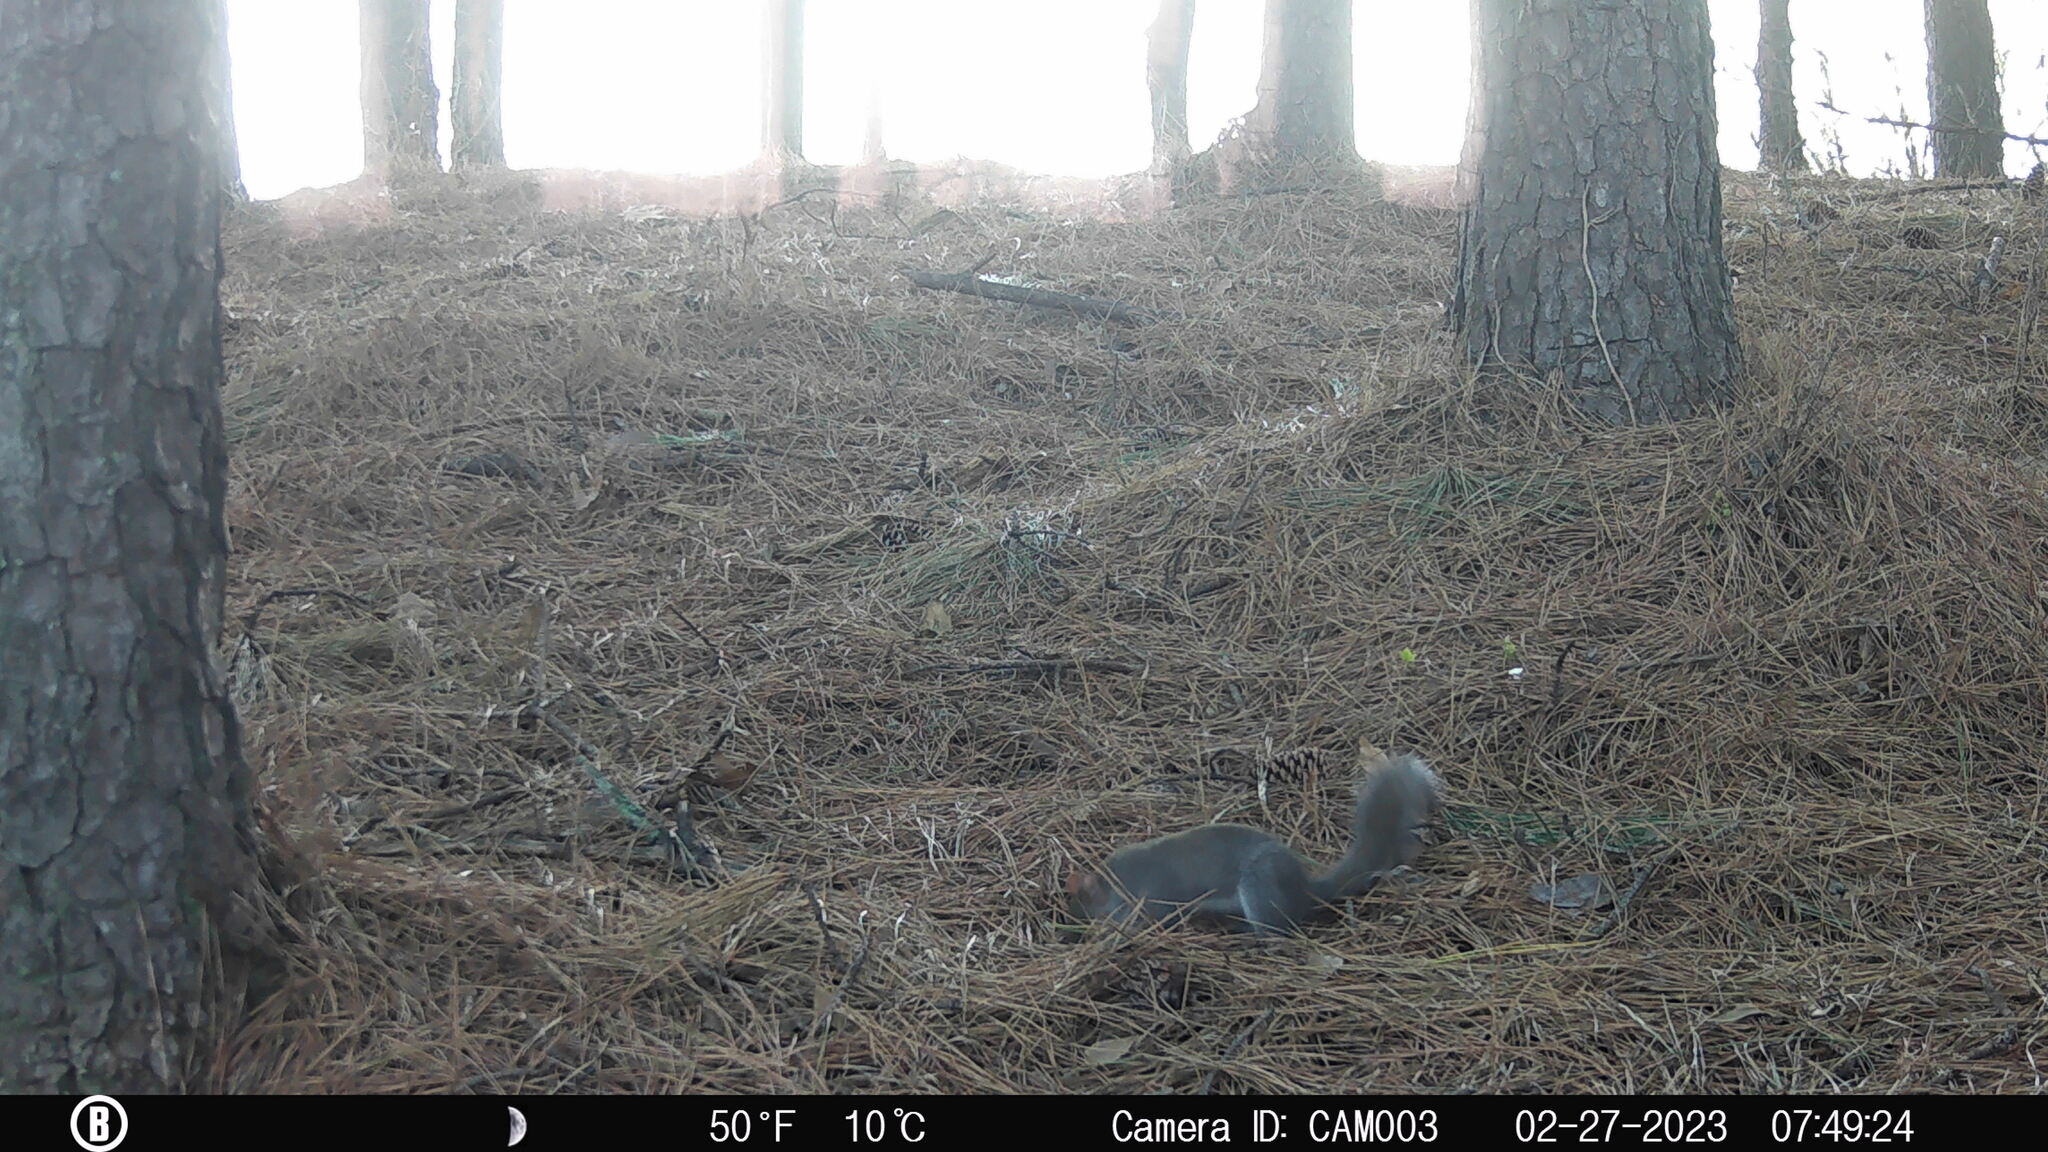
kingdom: Animalia
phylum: Chordata
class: Mammalia
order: Rodentia
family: Sciuridae
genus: Sciurus
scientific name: Sciurus carolinensis
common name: Eastern gray squirrel
